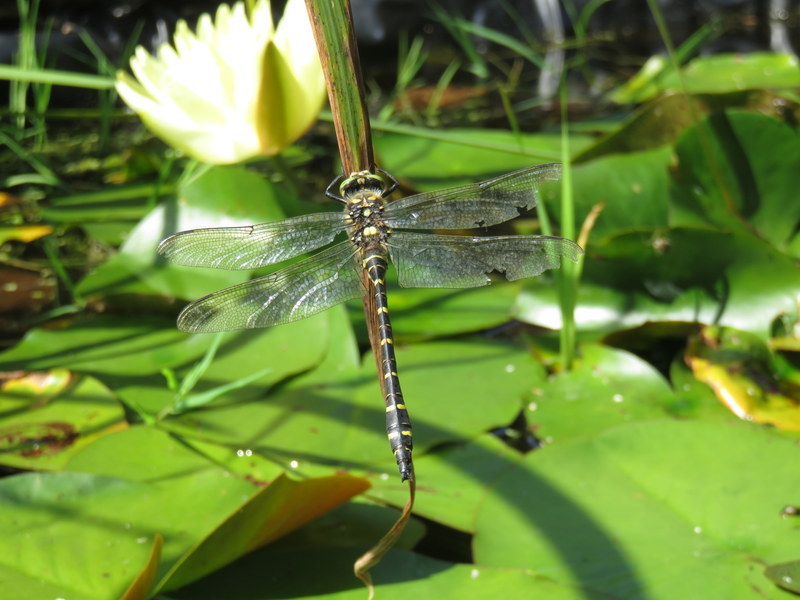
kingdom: Animalia
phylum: Arthropoda
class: Insecta
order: Odonata
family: Cordulegastridae
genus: Cordulegaster
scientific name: Cordulegaster boltonii
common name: Golden-ringed dragonfly
